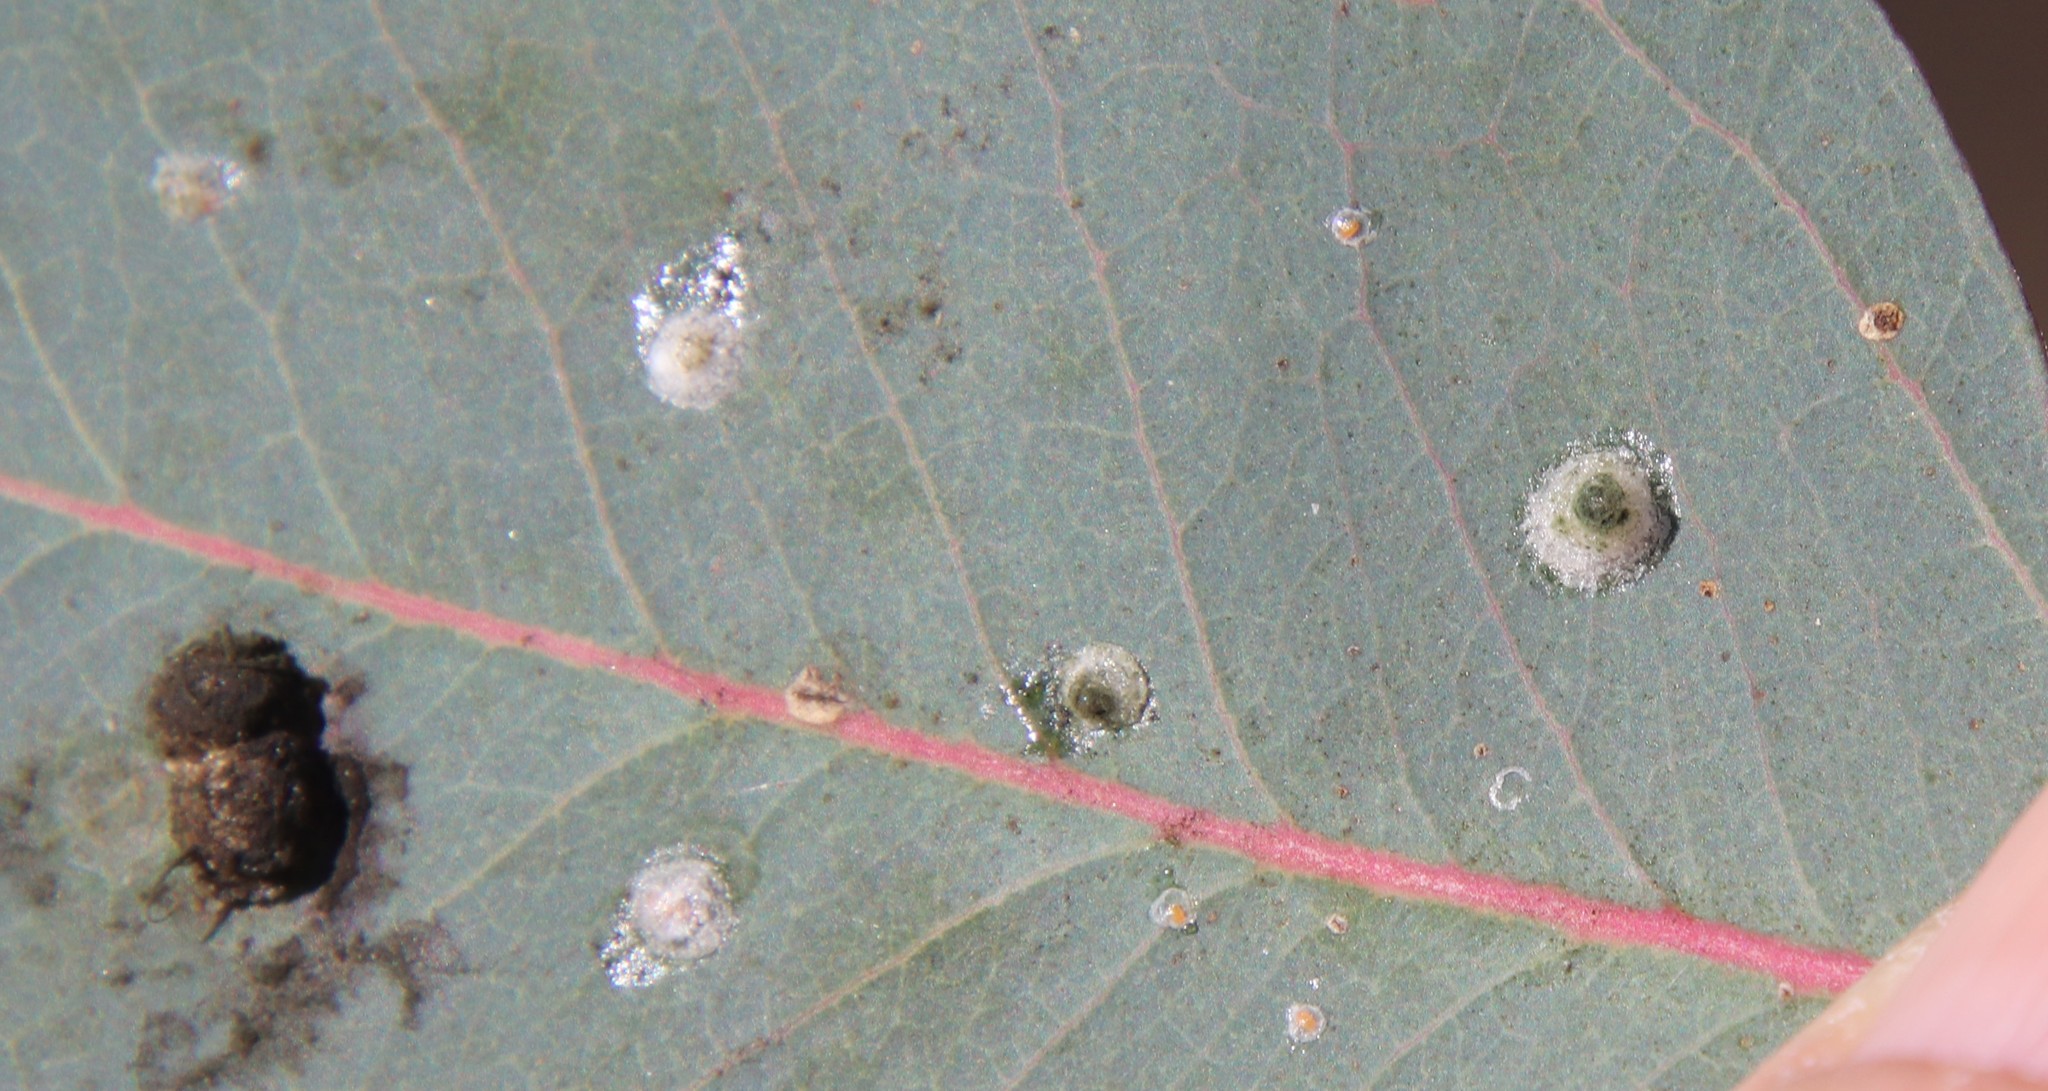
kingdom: Animalia
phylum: Arthropoda
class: Insecta
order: Hemiptera
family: Aphalaridae
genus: Glycaspis
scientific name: Glycaspis brimblecombei
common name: Red gum lerp psyllid
